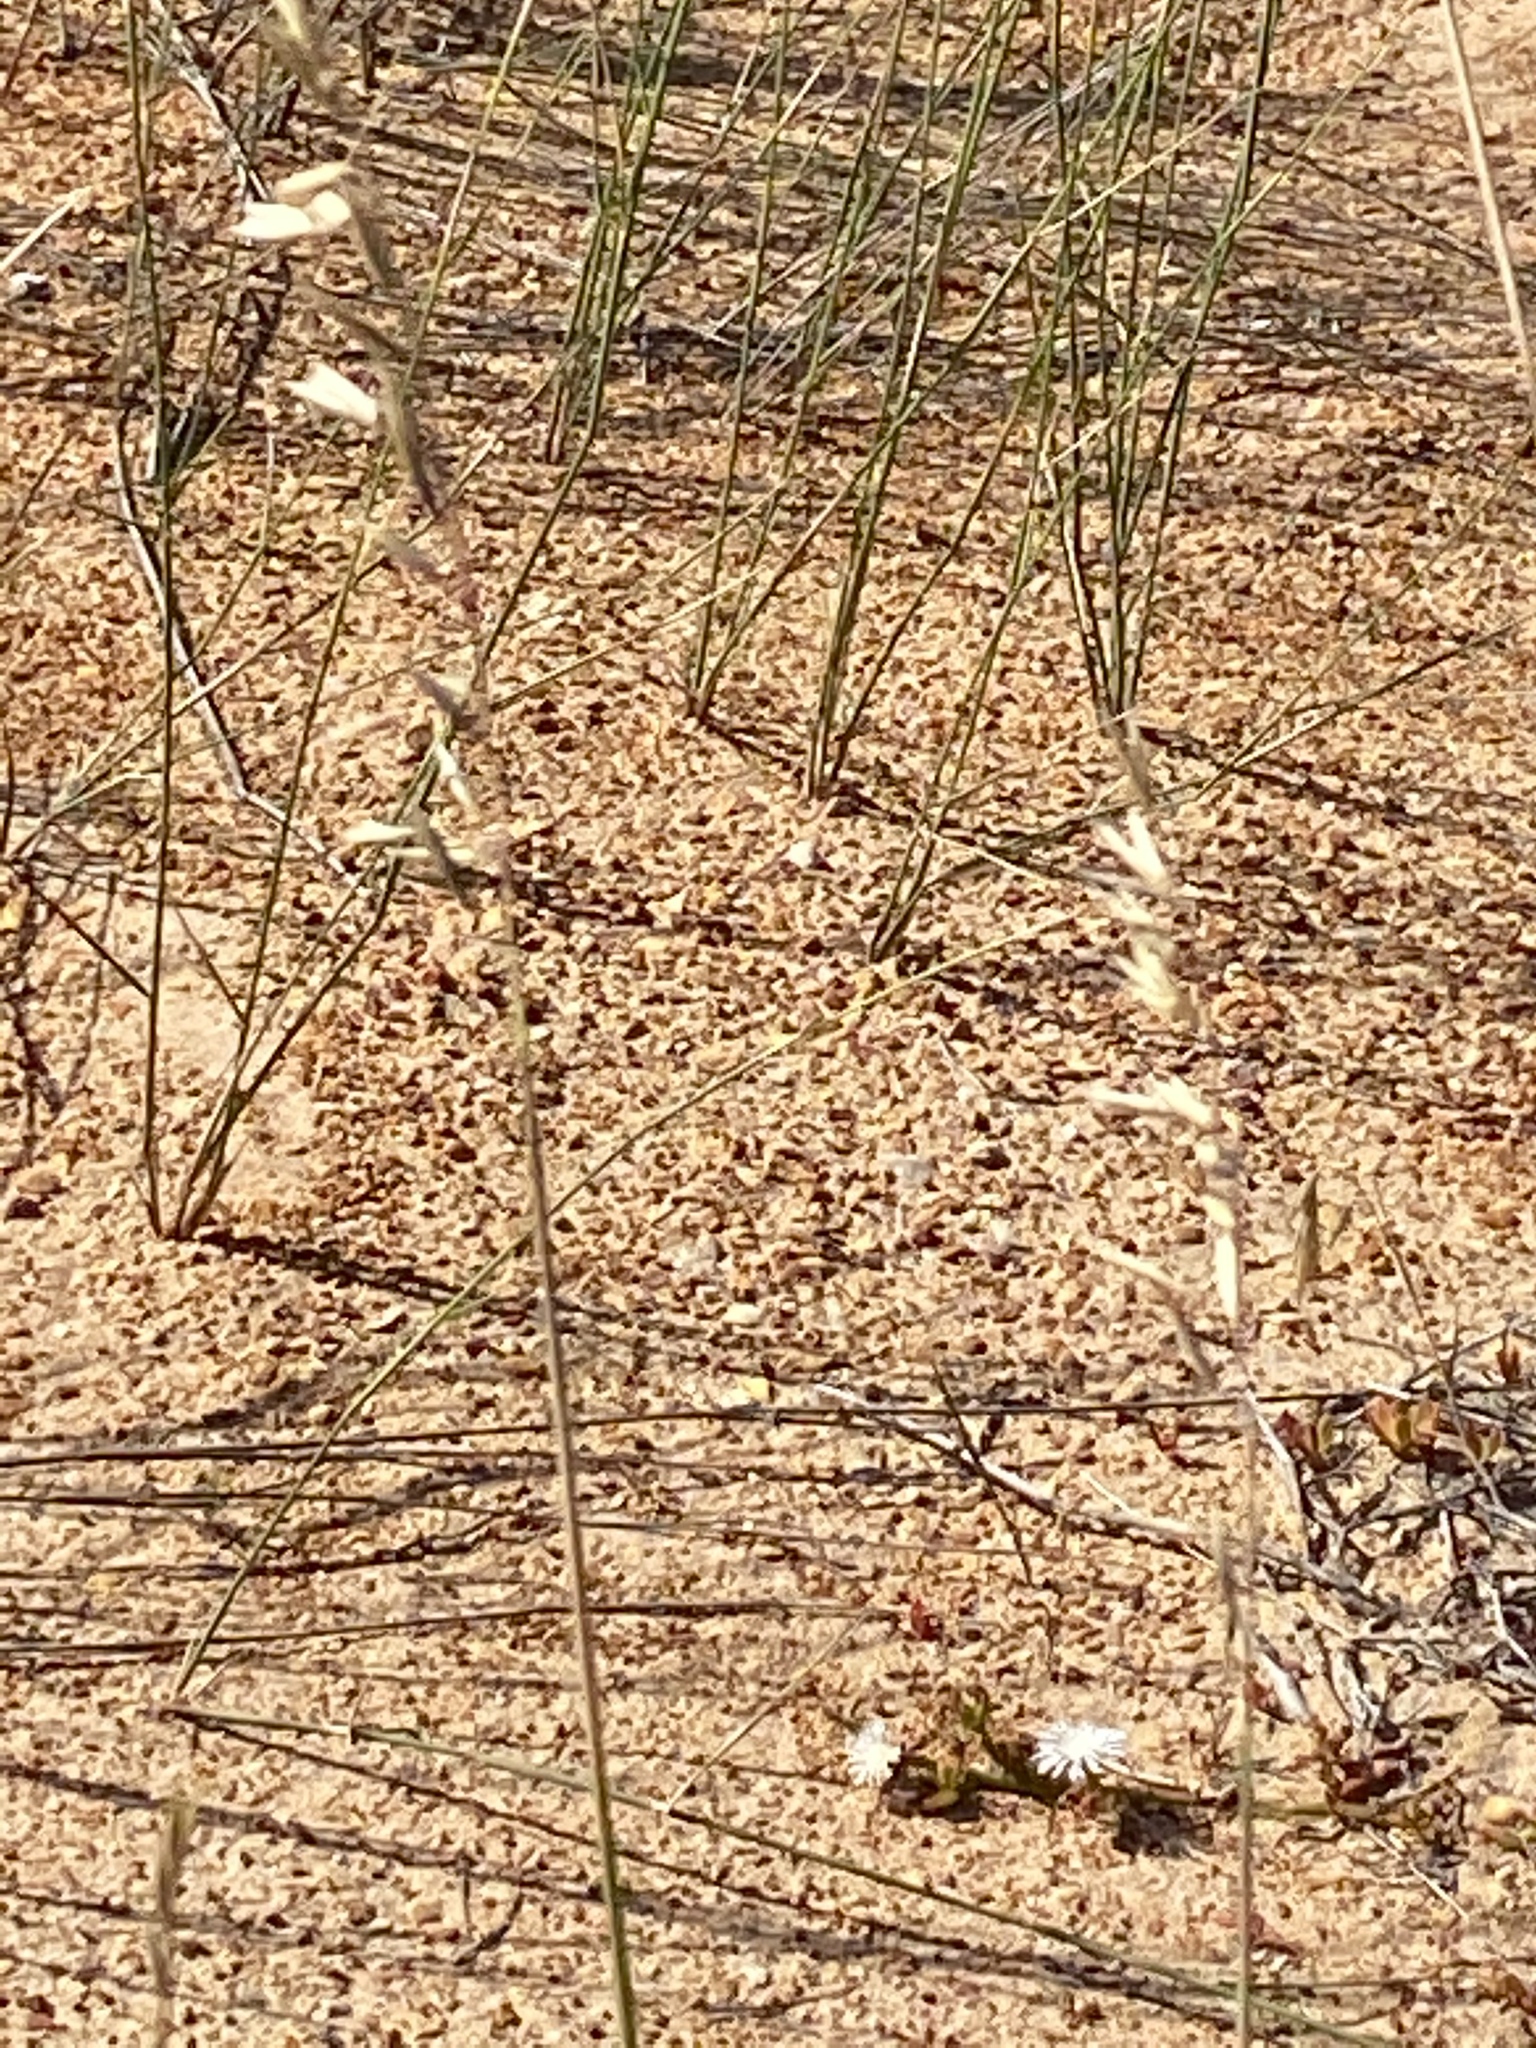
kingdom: Plantae
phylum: Tracheophyta
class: Liliopsida
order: Poales
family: Poaceae
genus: Ehrharta
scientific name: Ehrharta villosa
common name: Pyp grass
